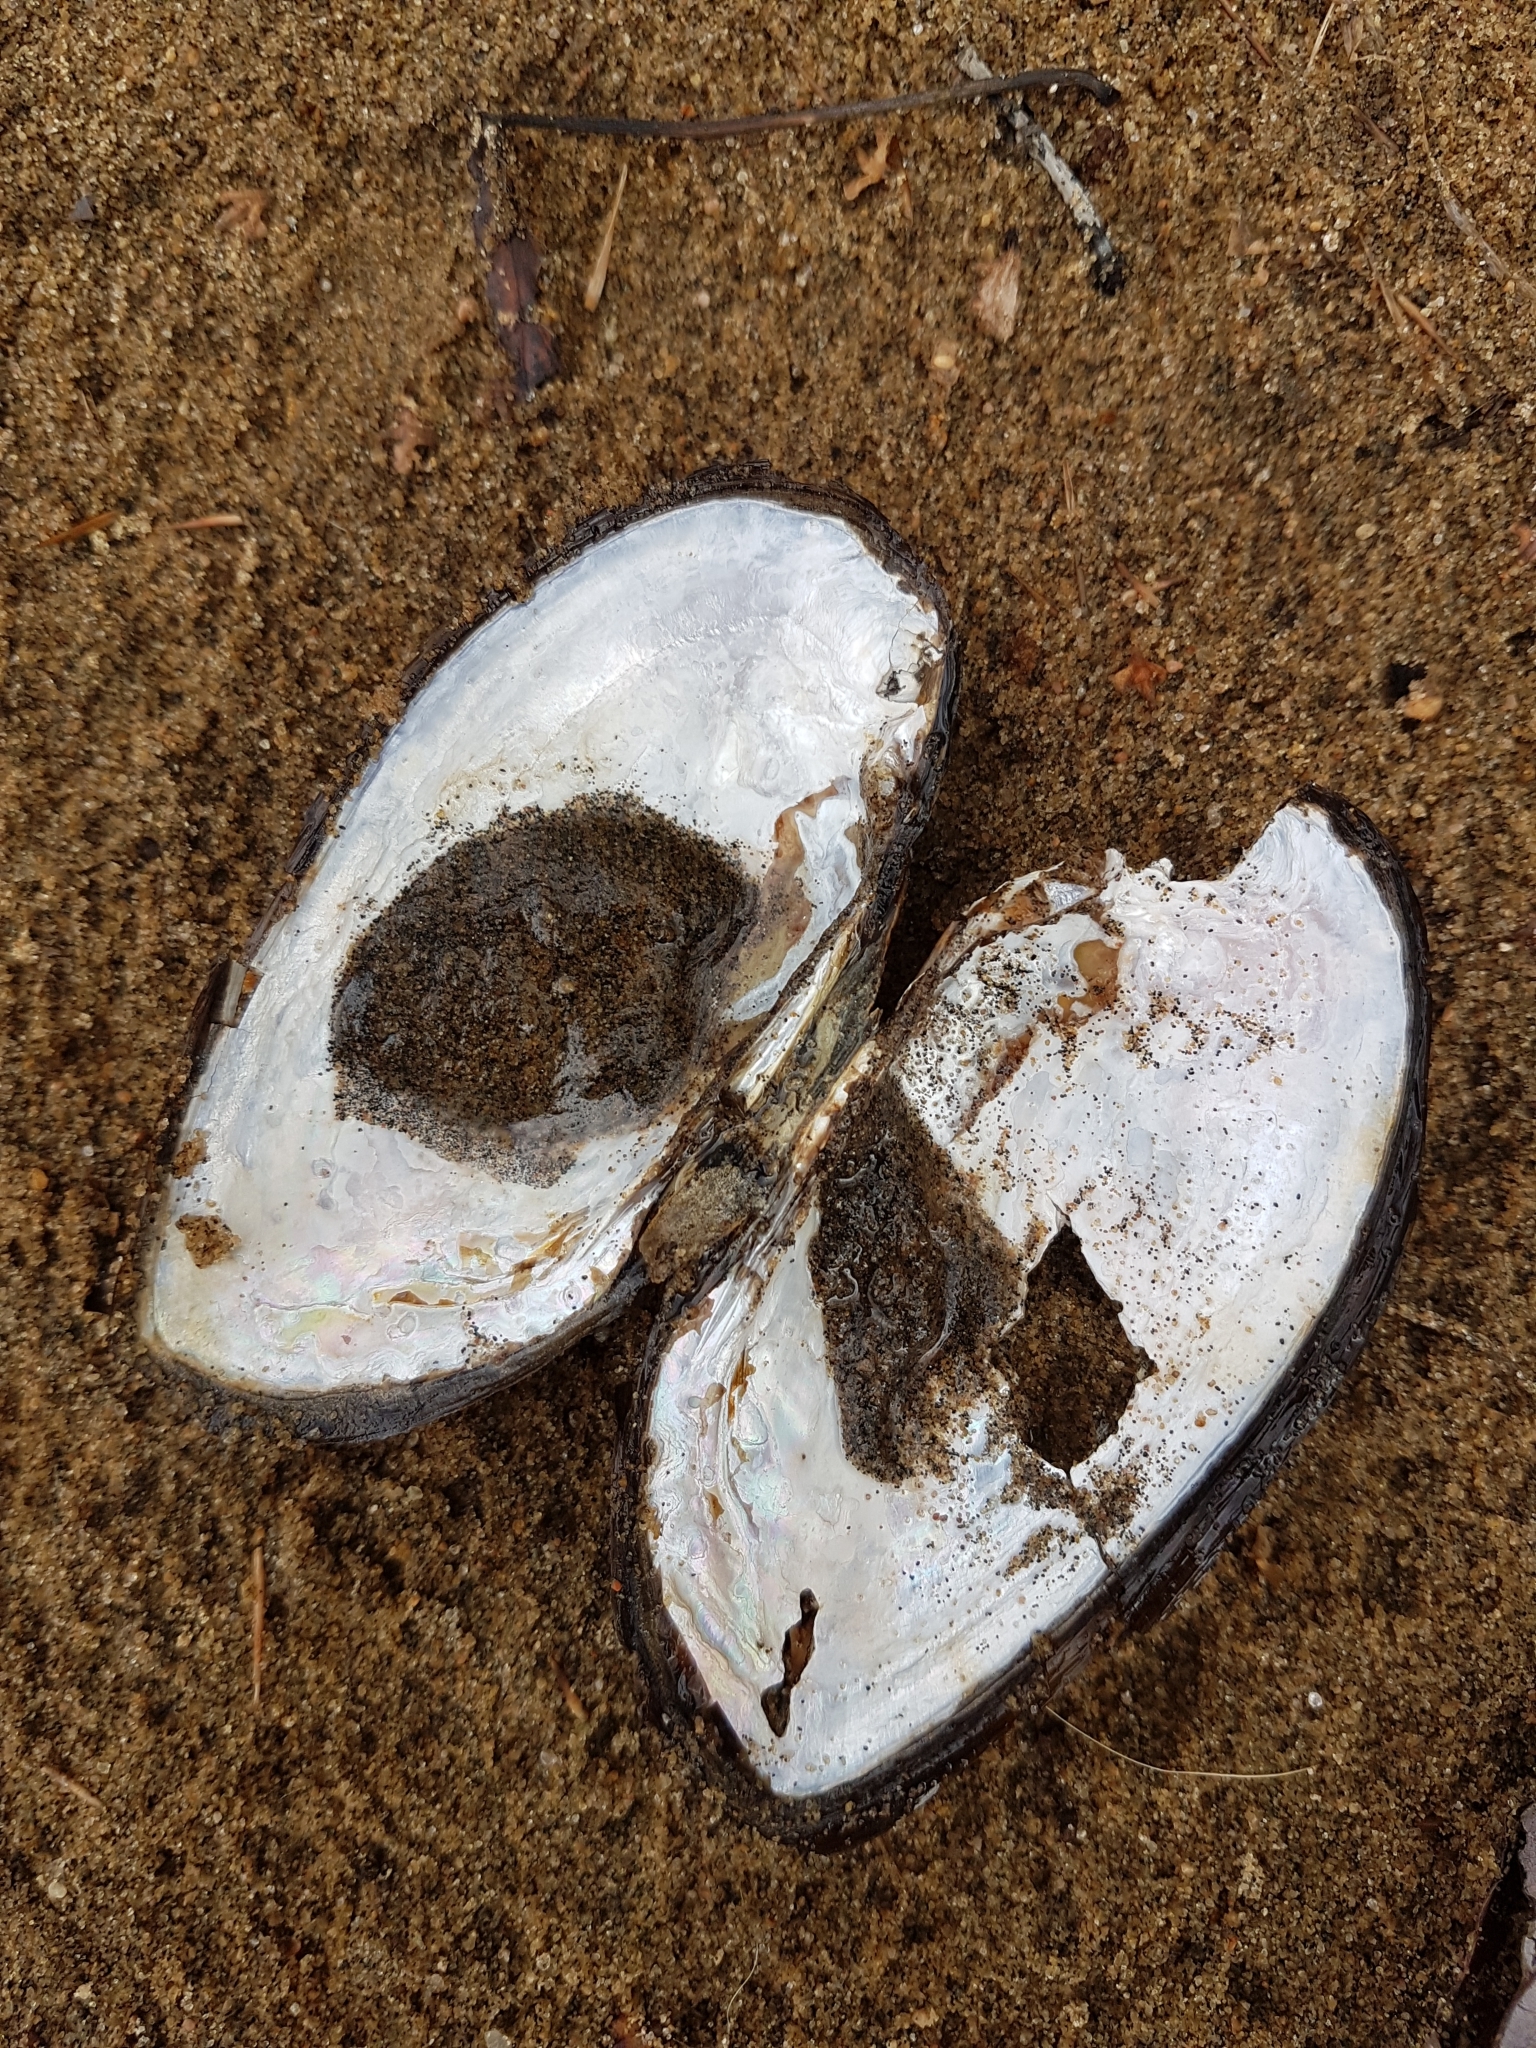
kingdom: Animalia
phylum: Mollusca
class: Bivalvia
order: Unionida
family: Unionidae
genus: Elliptio
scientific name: Elliptio complanata
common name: Eastern elliptio
